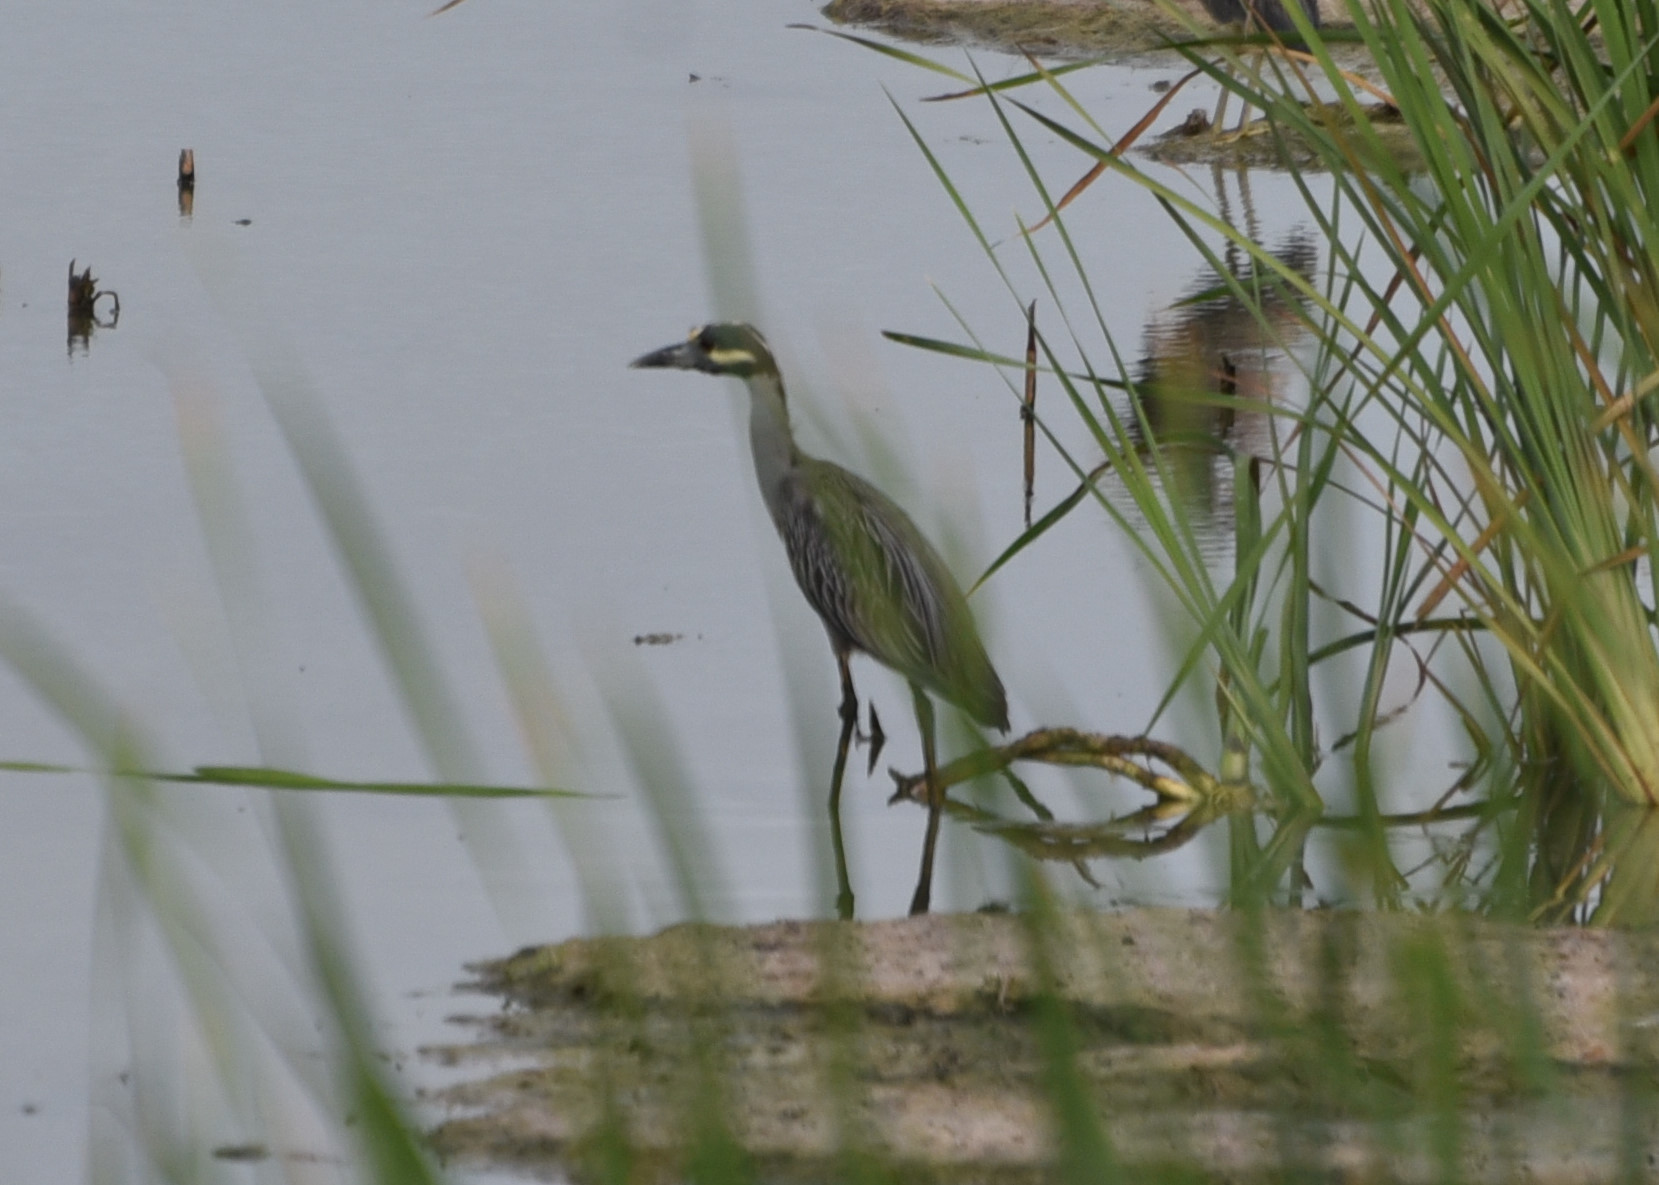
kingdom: Animalia
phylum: Chordata
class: Aves
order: Pelecaniformes
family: Ardeidae
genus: Nyctanassa
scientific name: Nyctanassa violacea
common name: Yellow-crowned night heron
